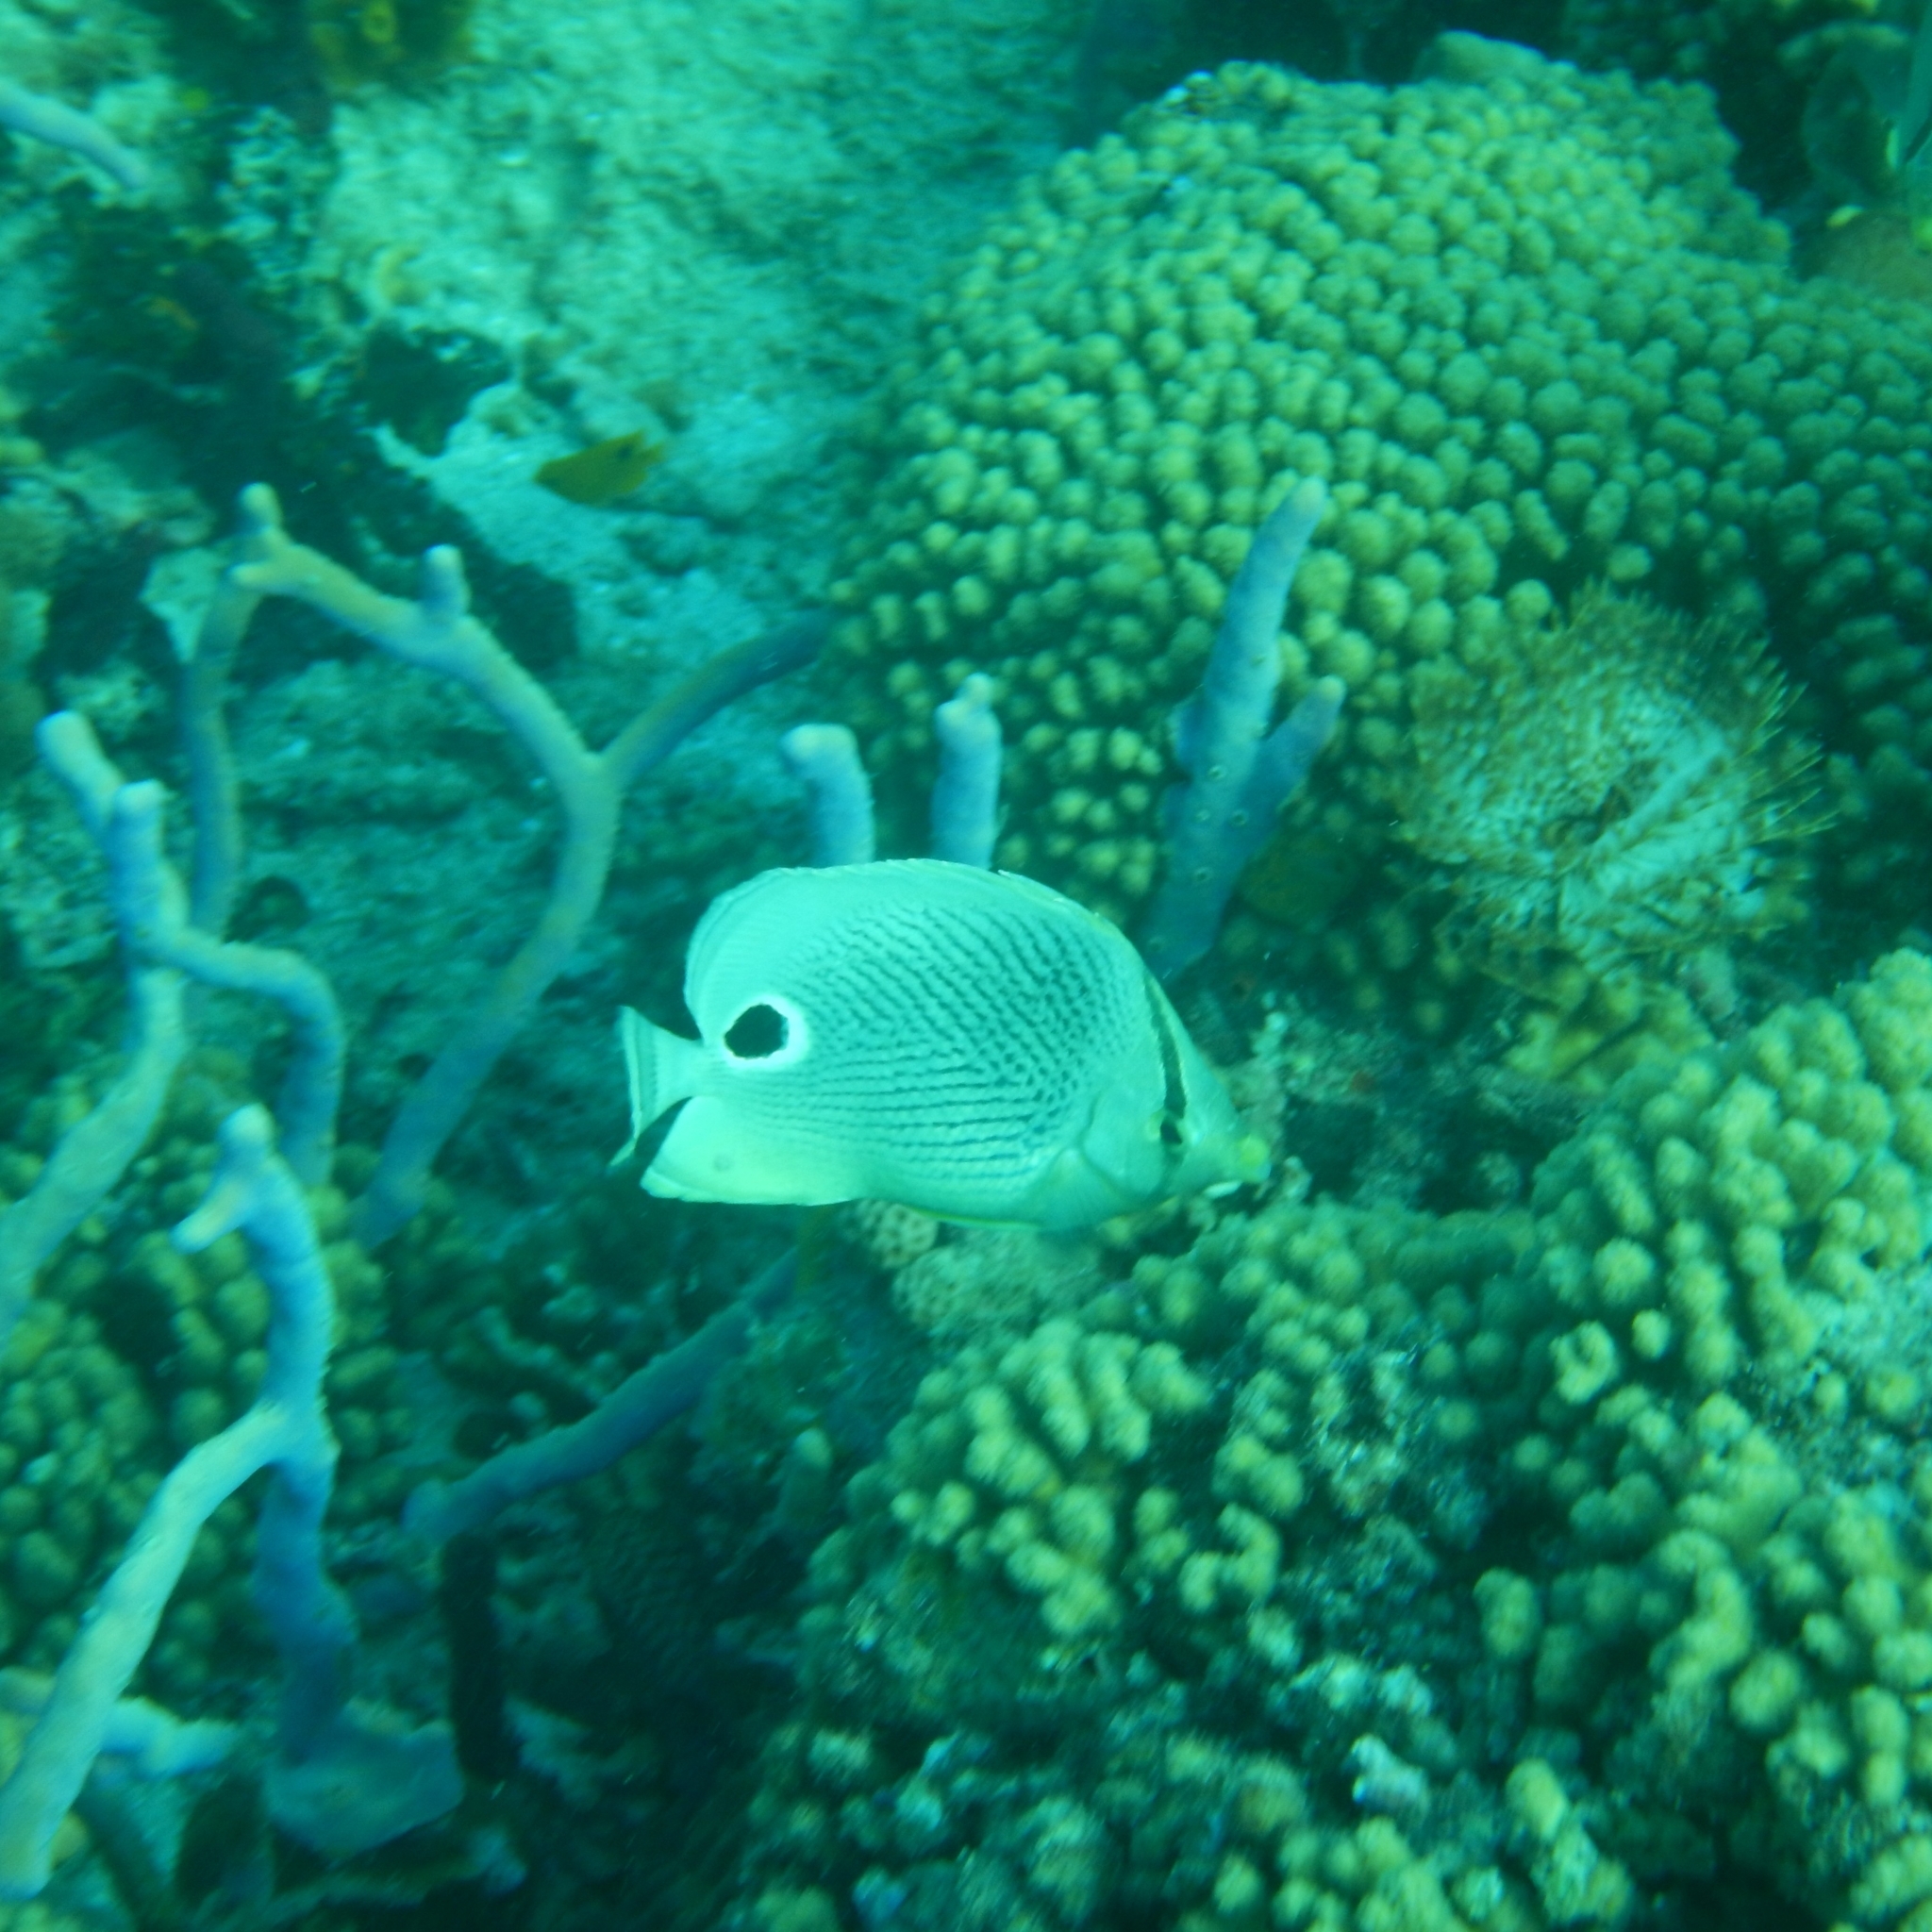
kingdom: Animalia
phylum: Chordata
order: Perciformes
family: Chaetodontidae
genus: Chaetodon
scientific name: Chaetodon capistratus
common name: Kete
